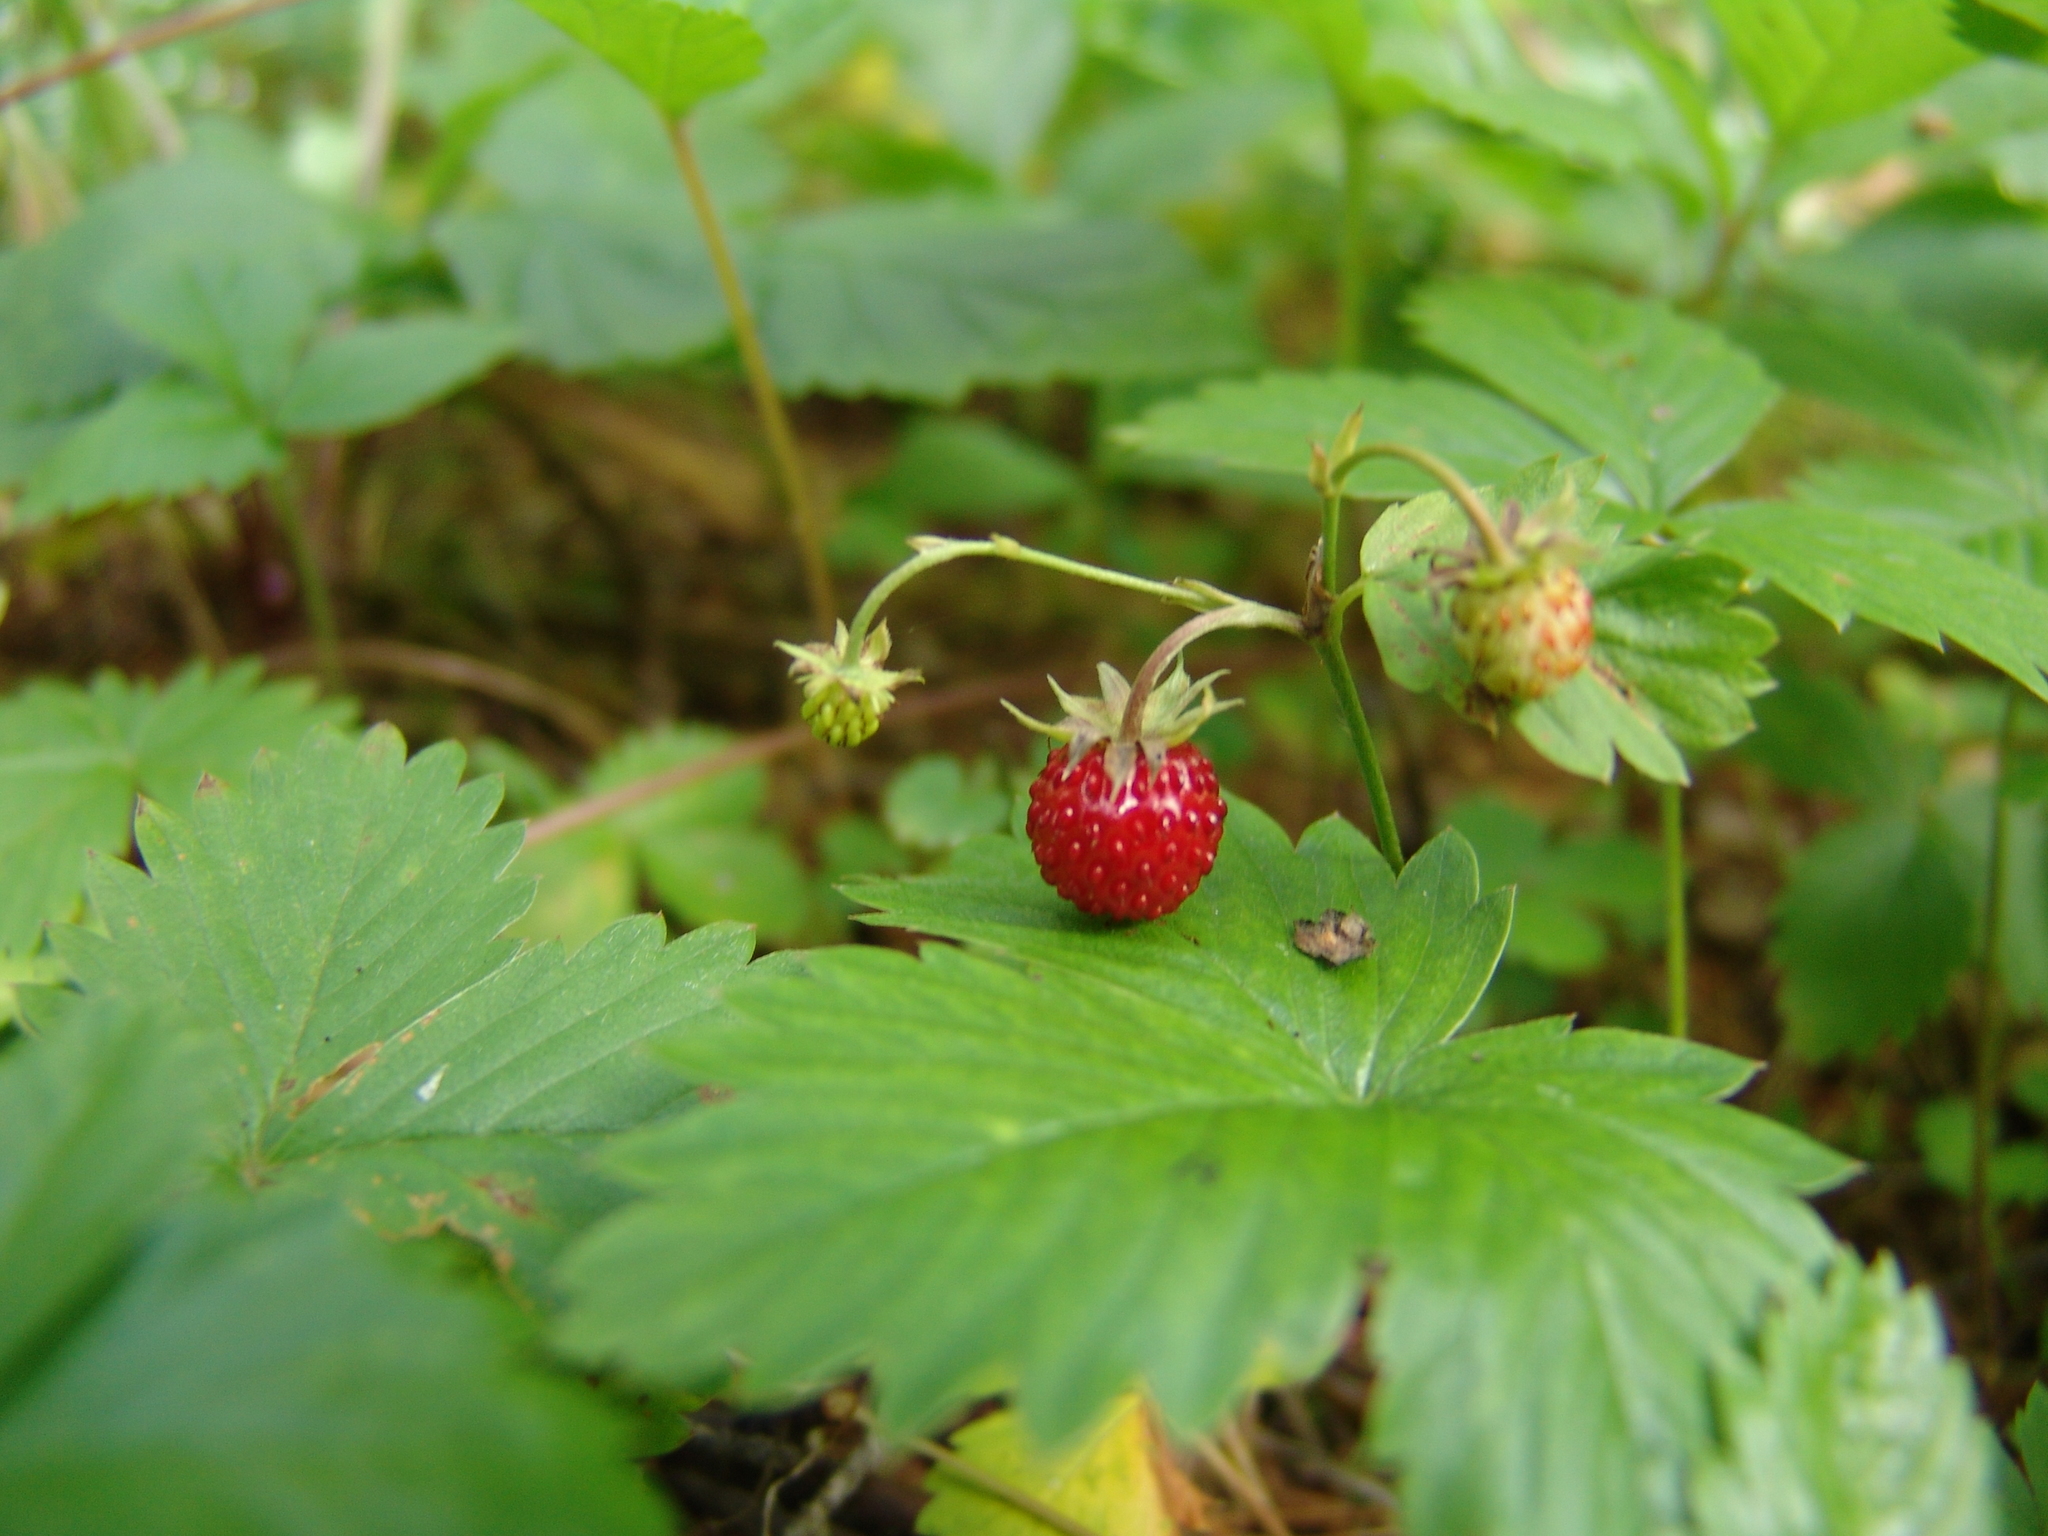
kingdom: Plantae
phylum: Tracheophyta
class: Magnoliopsida
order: Rosales
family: Rosaceae
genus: Fragaria
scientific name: Fragaria vesca
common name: Wild strawberry
